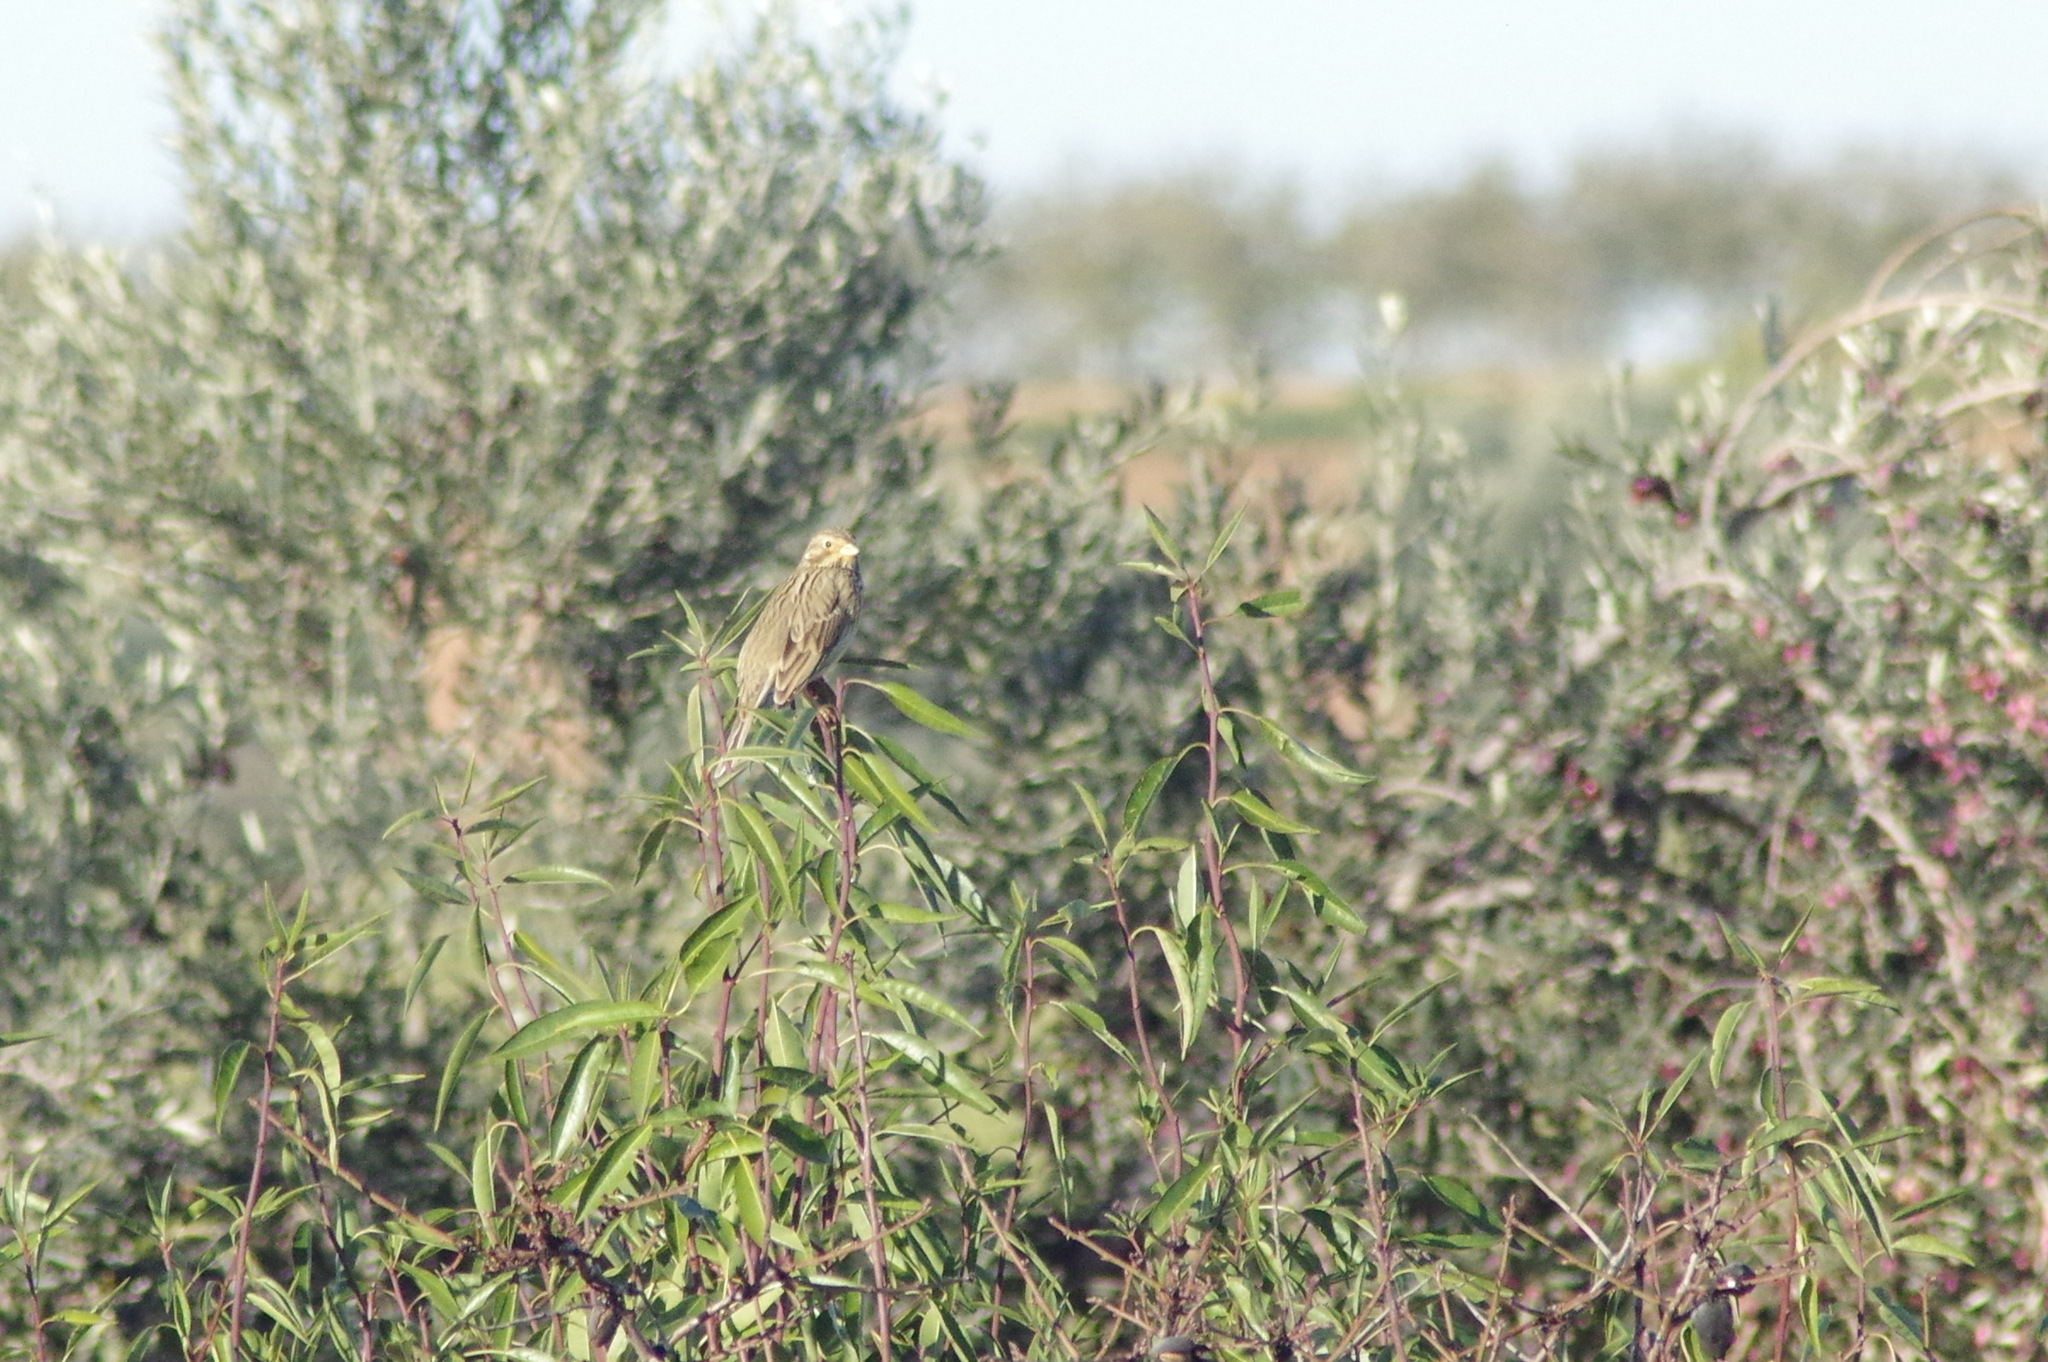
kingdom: Animalia
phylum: Chordata
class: Aves
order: Passeriformes
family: Emberizidae
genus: Emberiza
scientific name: Emberiza calandra
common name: Corn bunting
